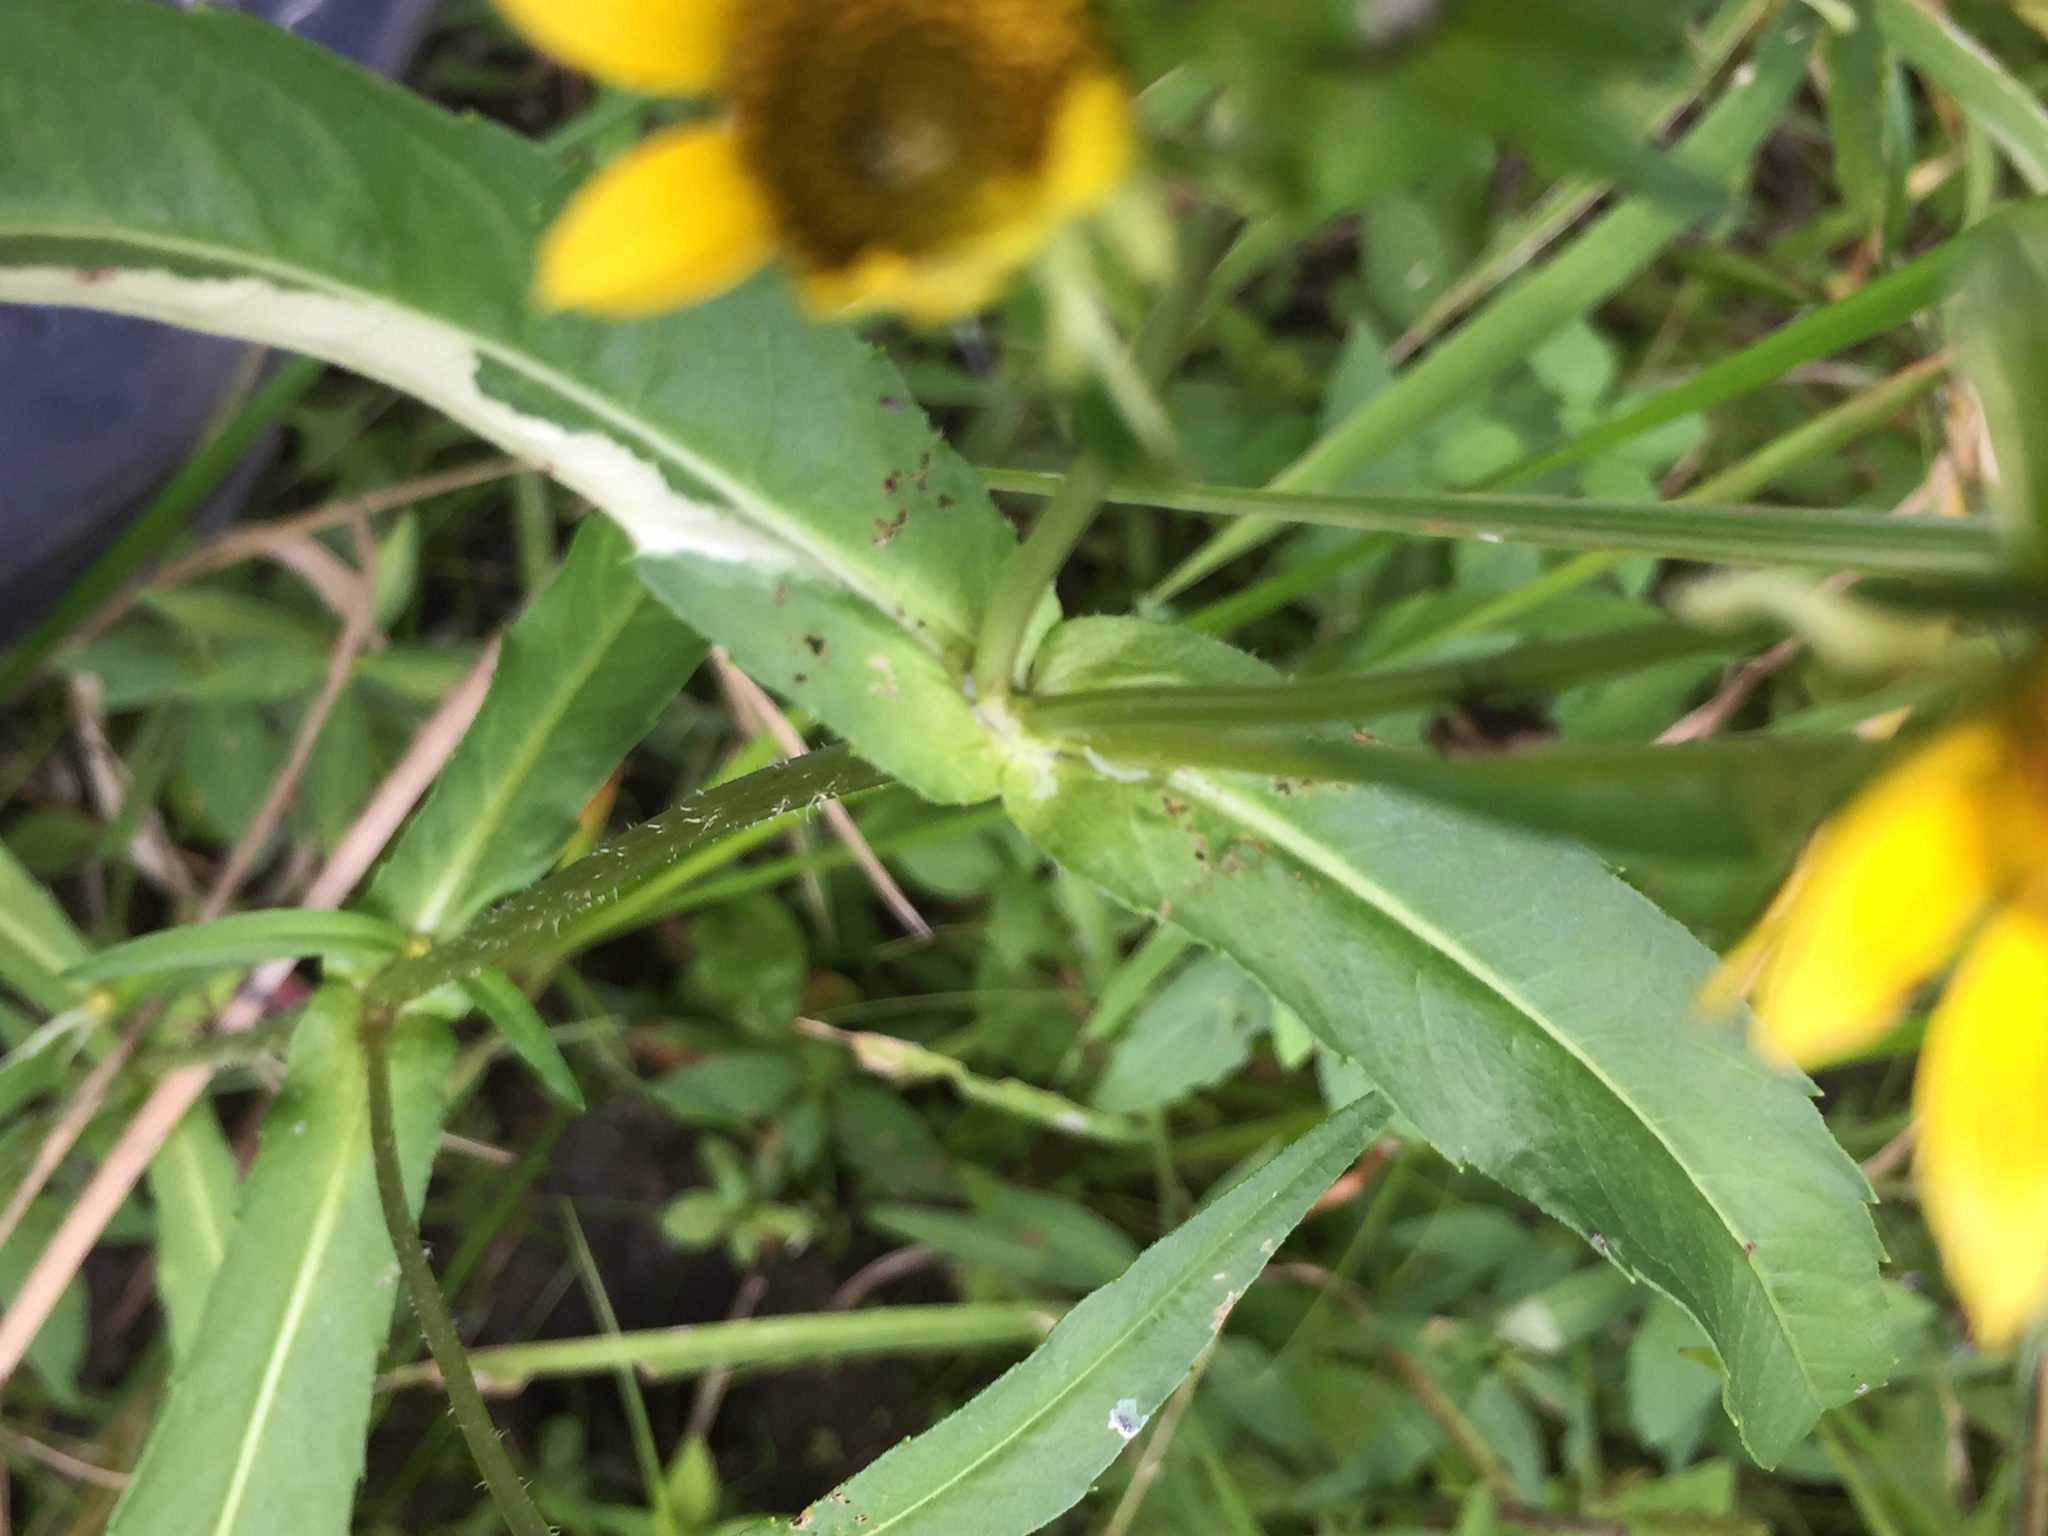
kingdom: Plantae
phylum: Tracheophyta
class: Magnoliopsida
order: Asterales
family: Asteraceae
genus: Bidens
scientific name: Bidens cernua
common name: Nodding bur-marigold
